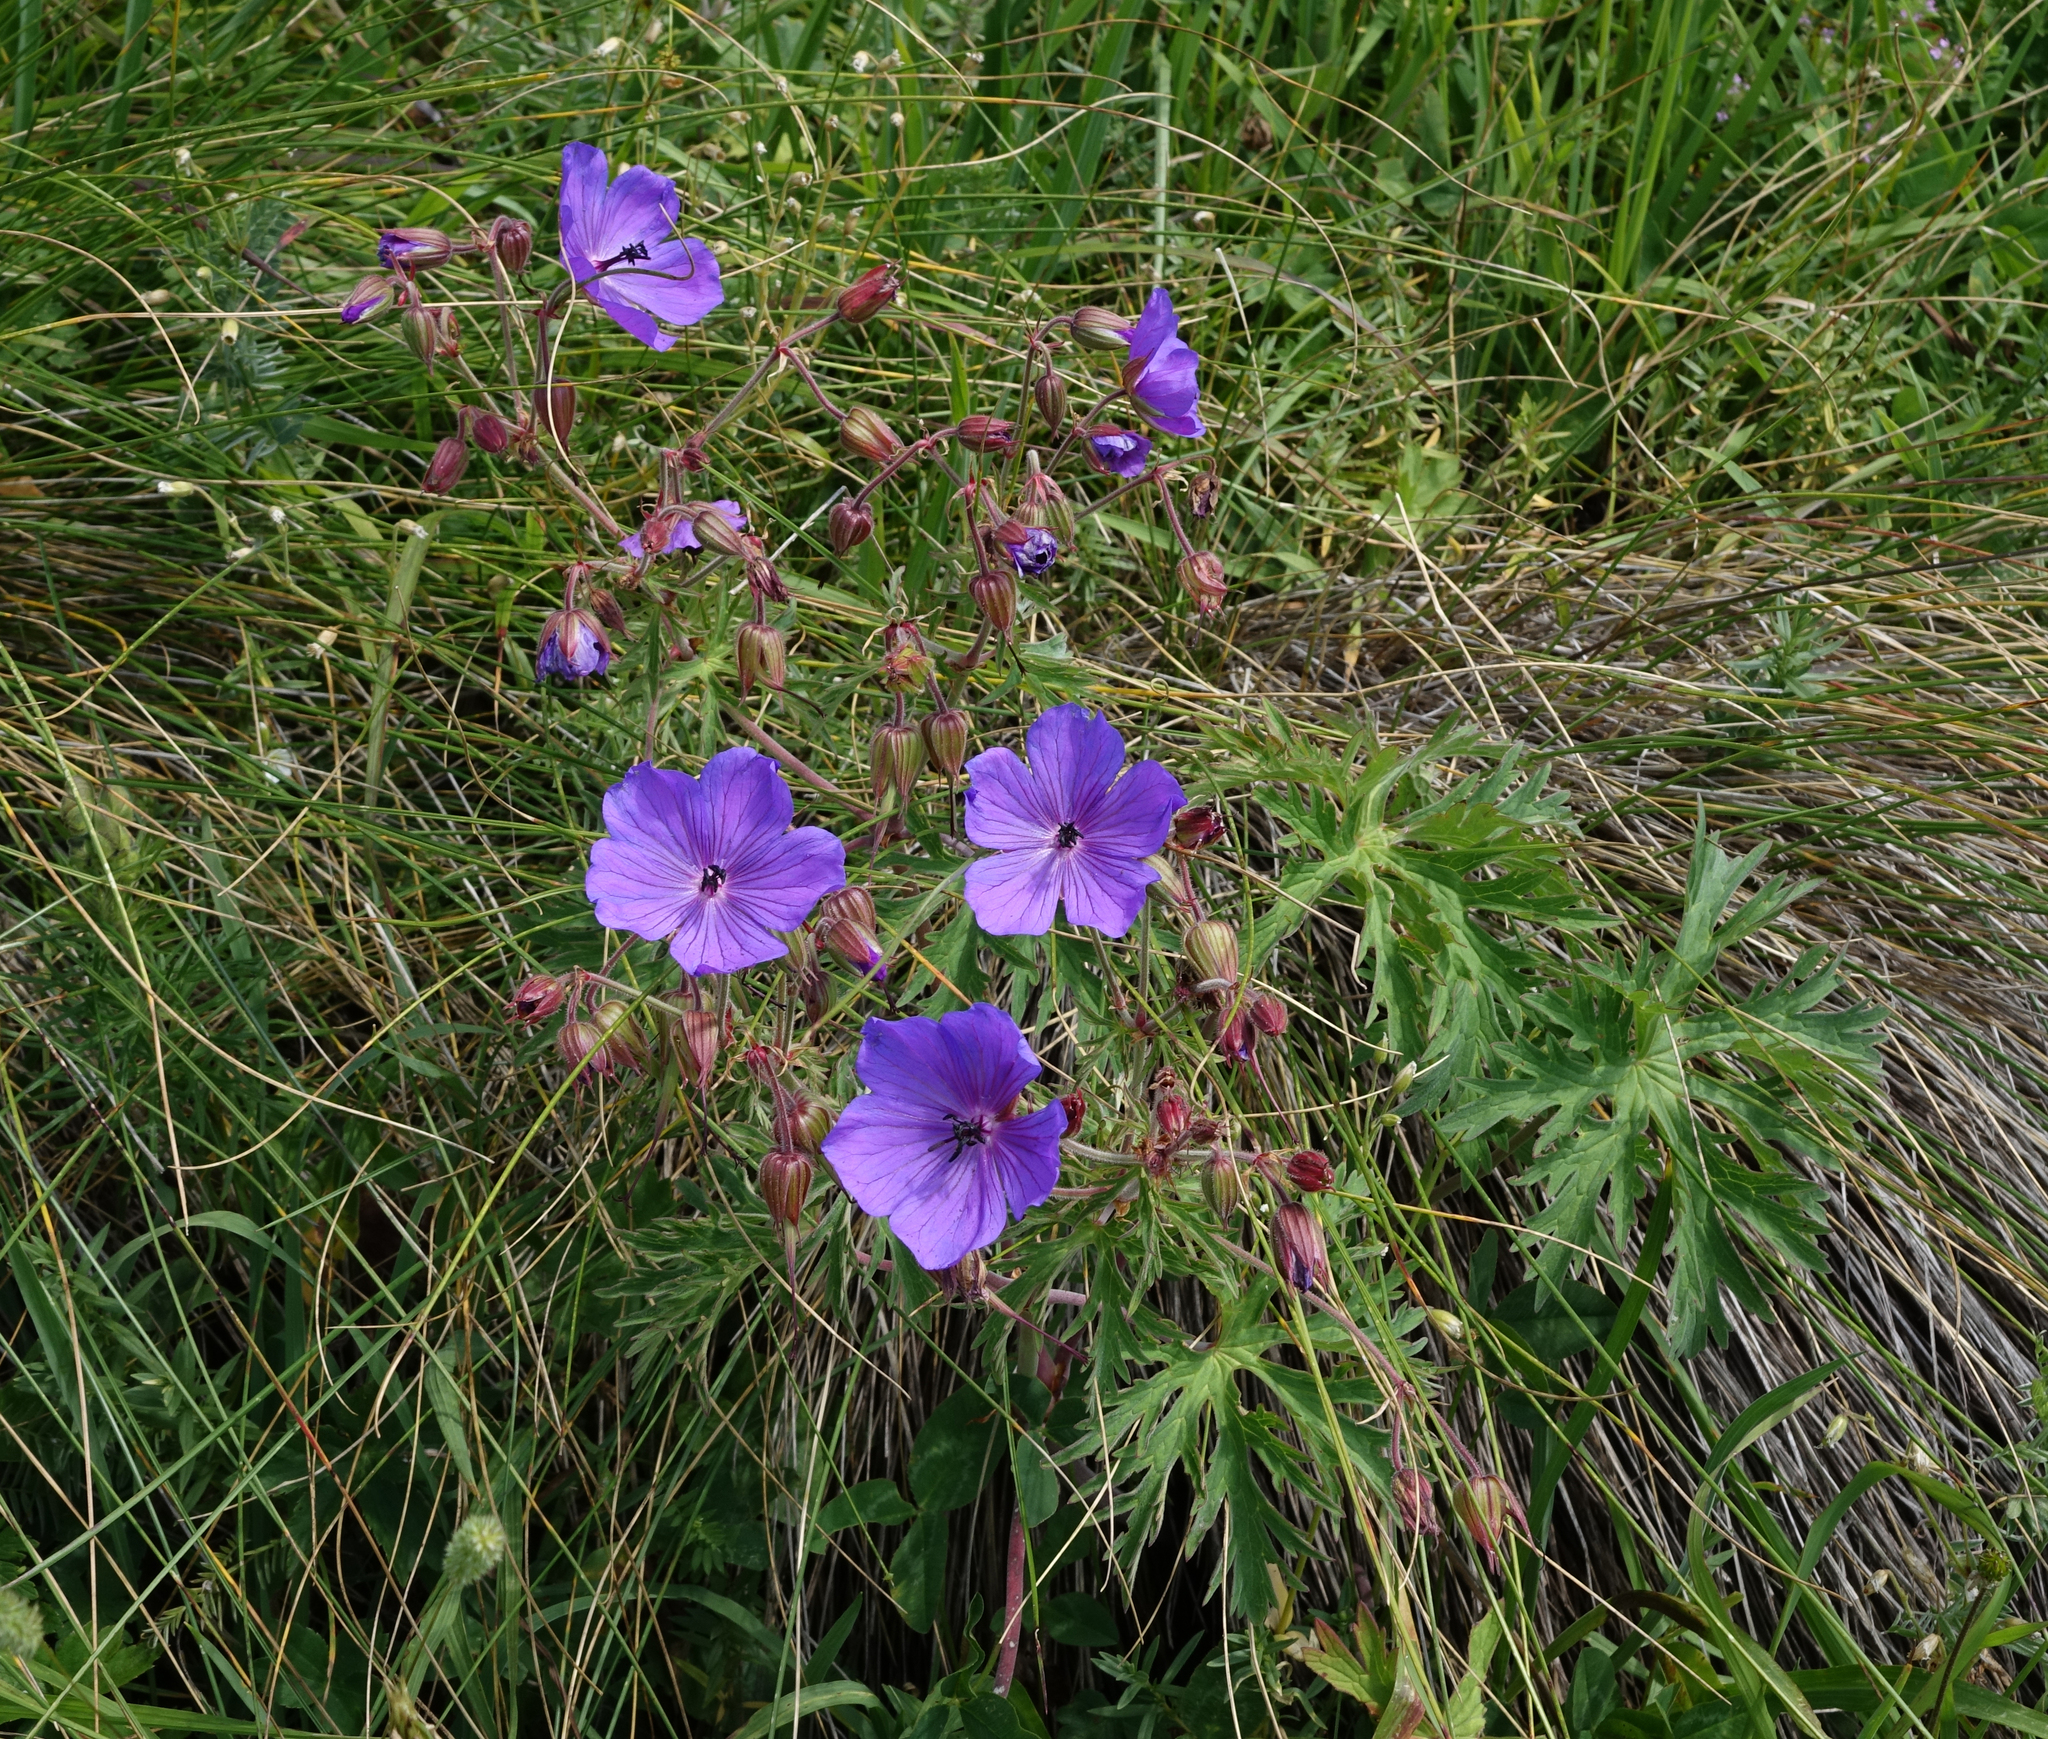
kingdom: Plantae
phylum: Tracheophyta
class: Magnoliopsida
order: Geraniales
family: Geraniaceae
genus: Geranium
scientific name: Geranium ruprechtii
